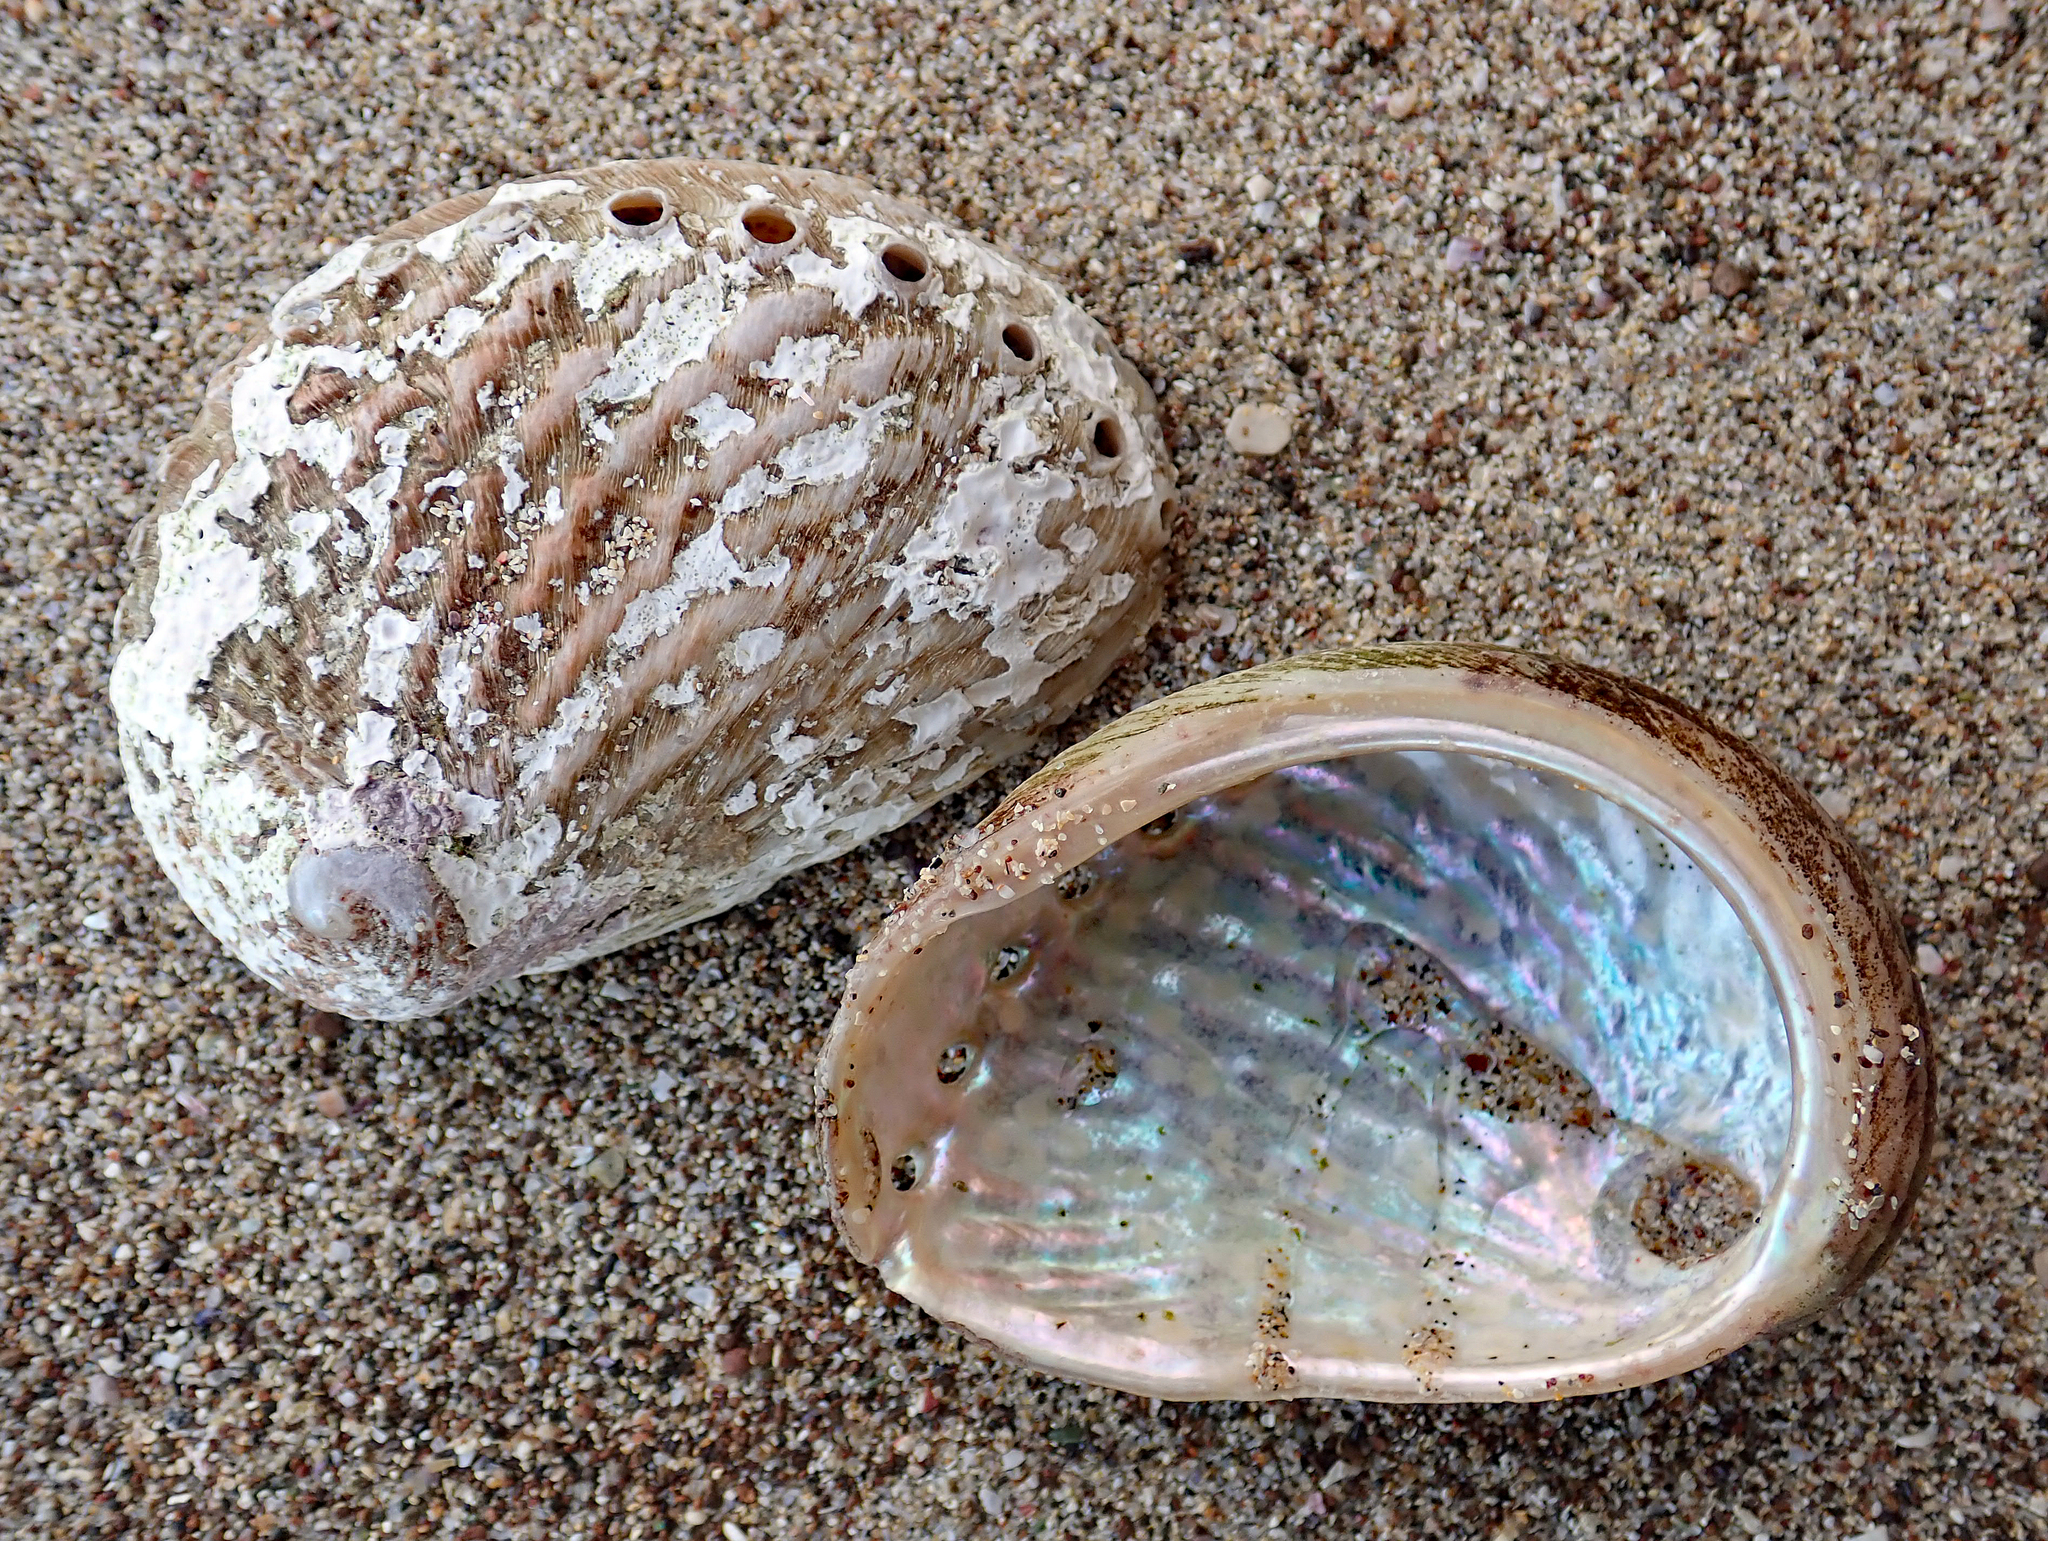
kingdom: Animalia
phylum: Mollusca
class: Gastropoda
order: Lepetellida
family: Haliotidae
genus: Haliotis
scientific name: Haliotis australis
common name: Silver abalone
